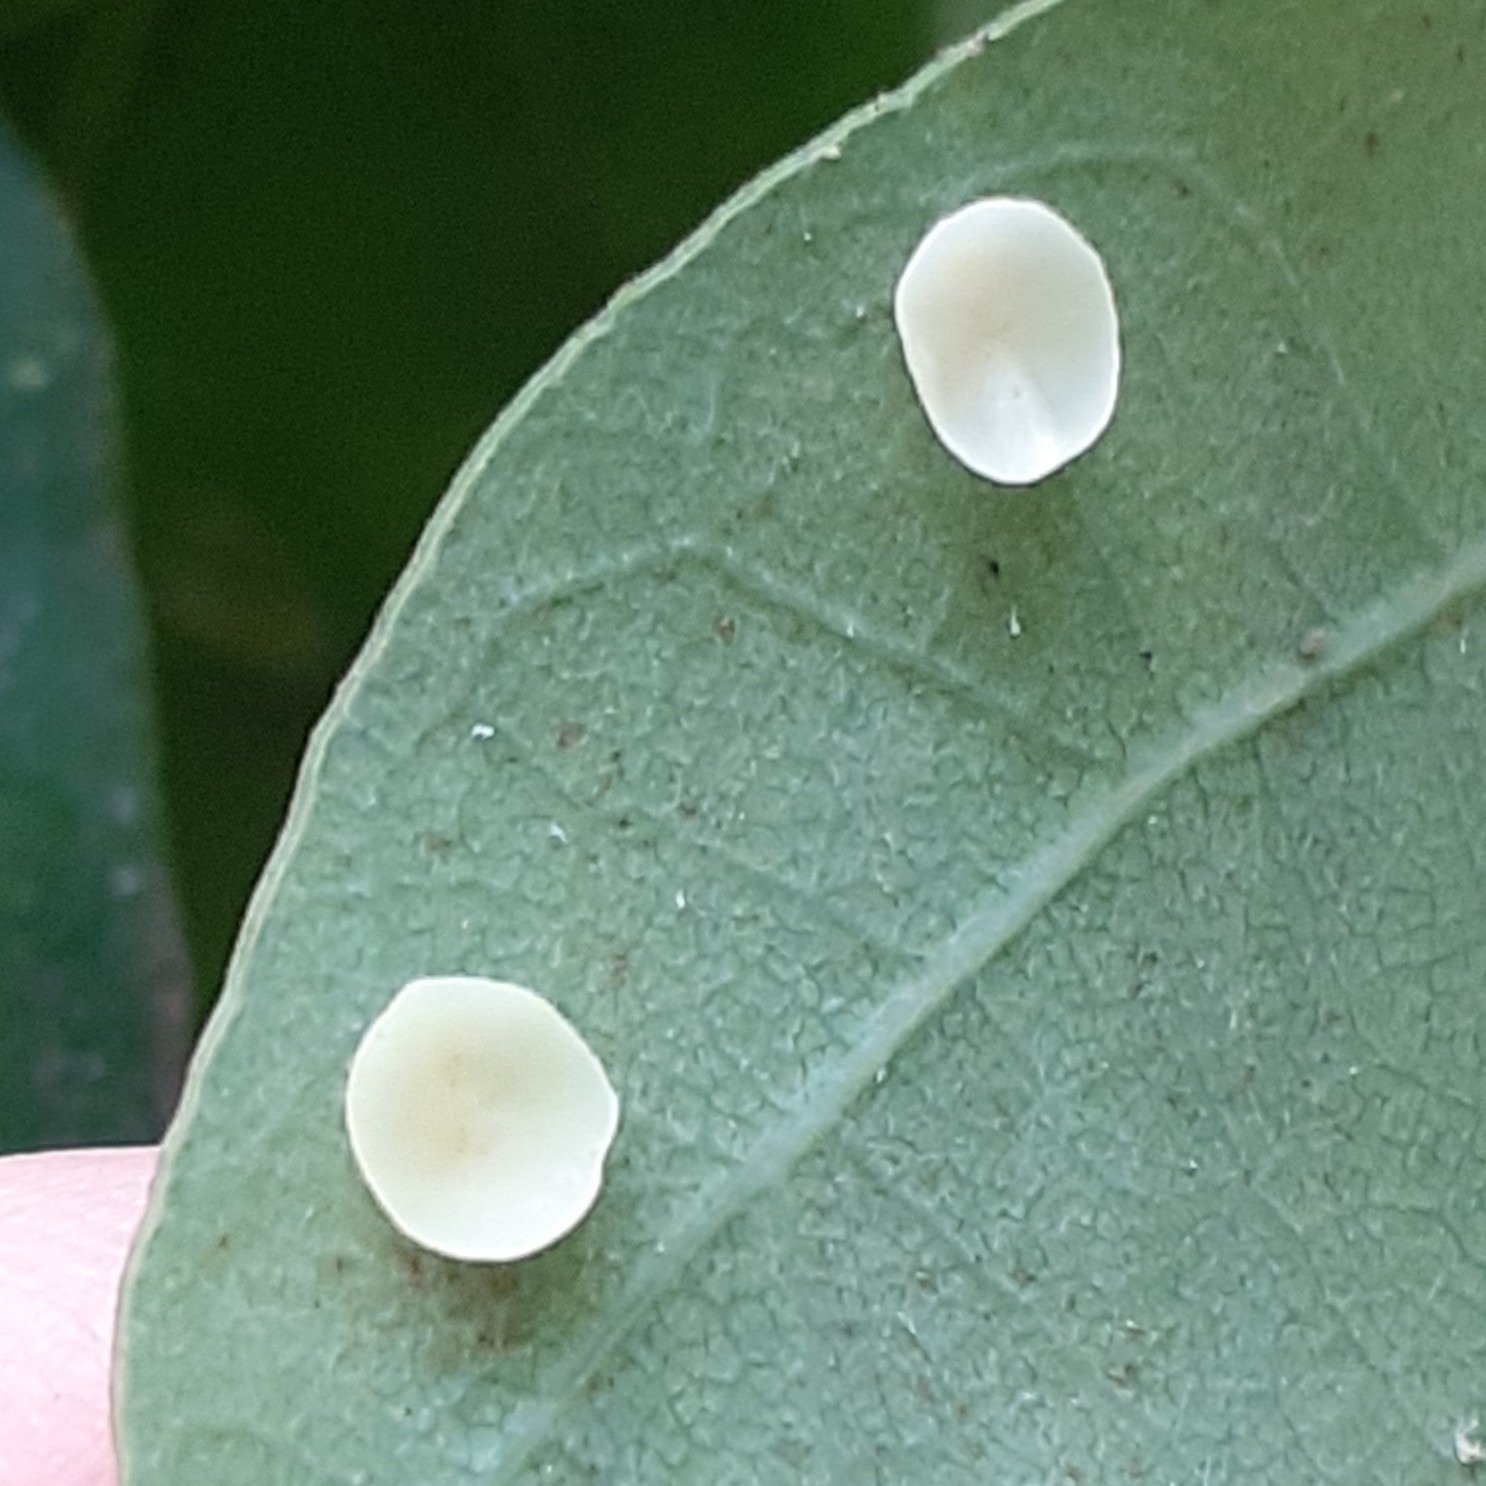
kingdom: Animalia
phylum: Arthropoda
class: Insecta
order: Hymenoptera
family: Cynipidae
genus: Neuroterus
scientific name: Neuroterus albipes
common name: Smooth spangle gall
